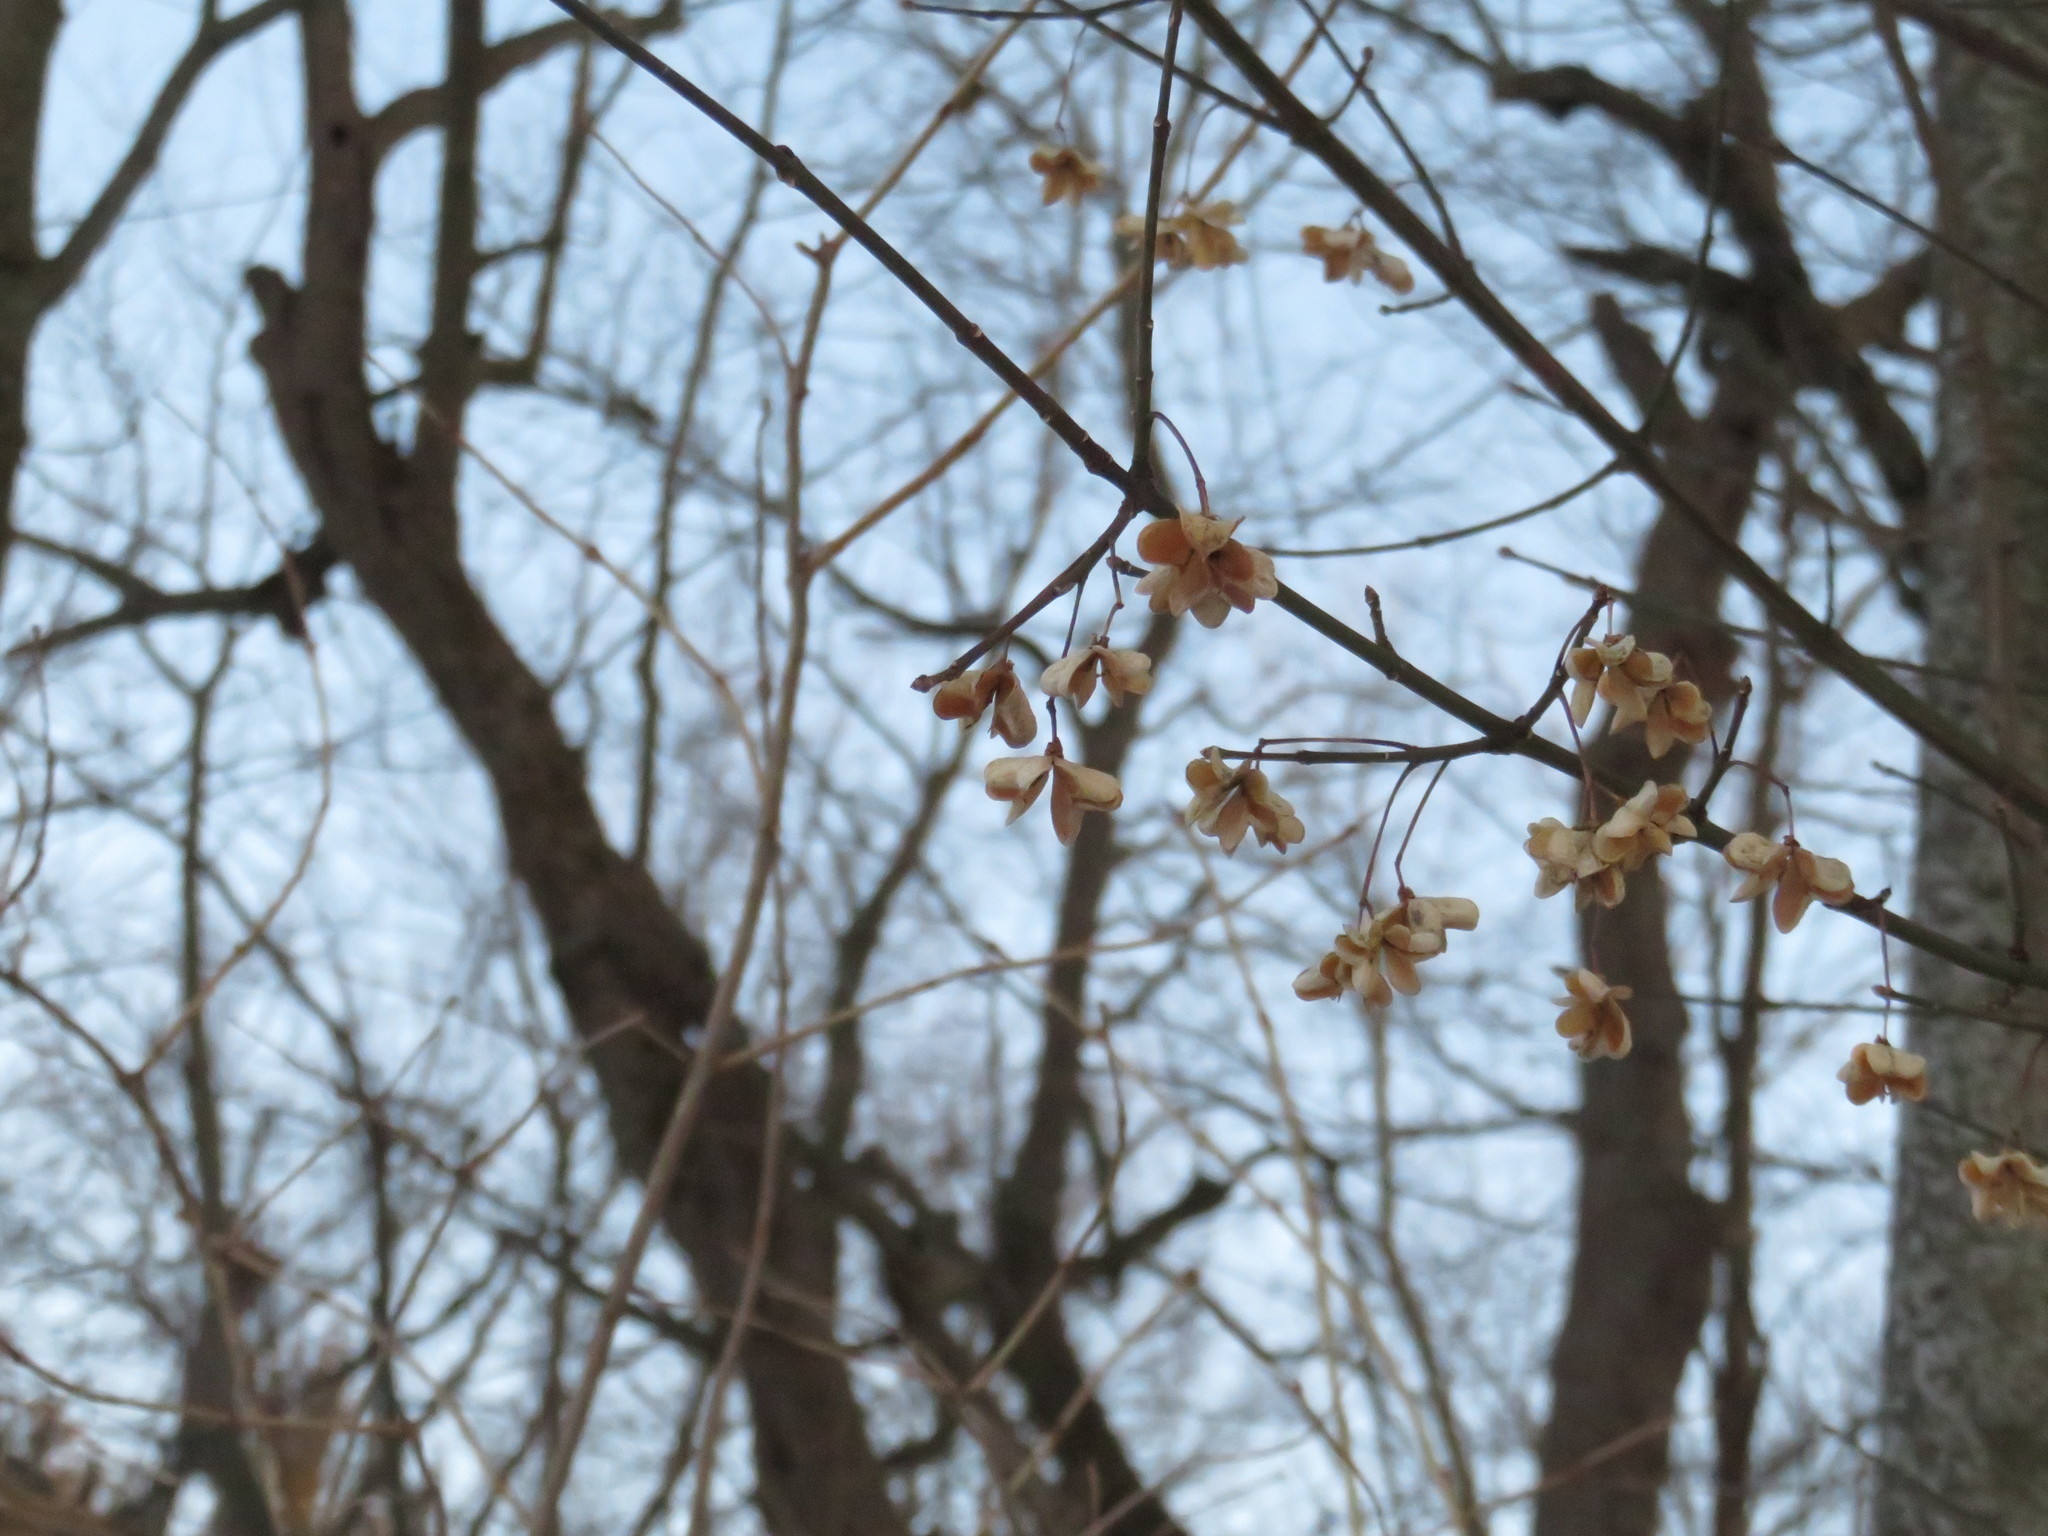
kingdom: Plantae
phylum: Tracheophyta
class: Magnoliopsida
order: Celastrales
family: Celastraceae
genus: Euonymus
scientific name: Euonymus atropurpureus
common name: Eastern wahoo
